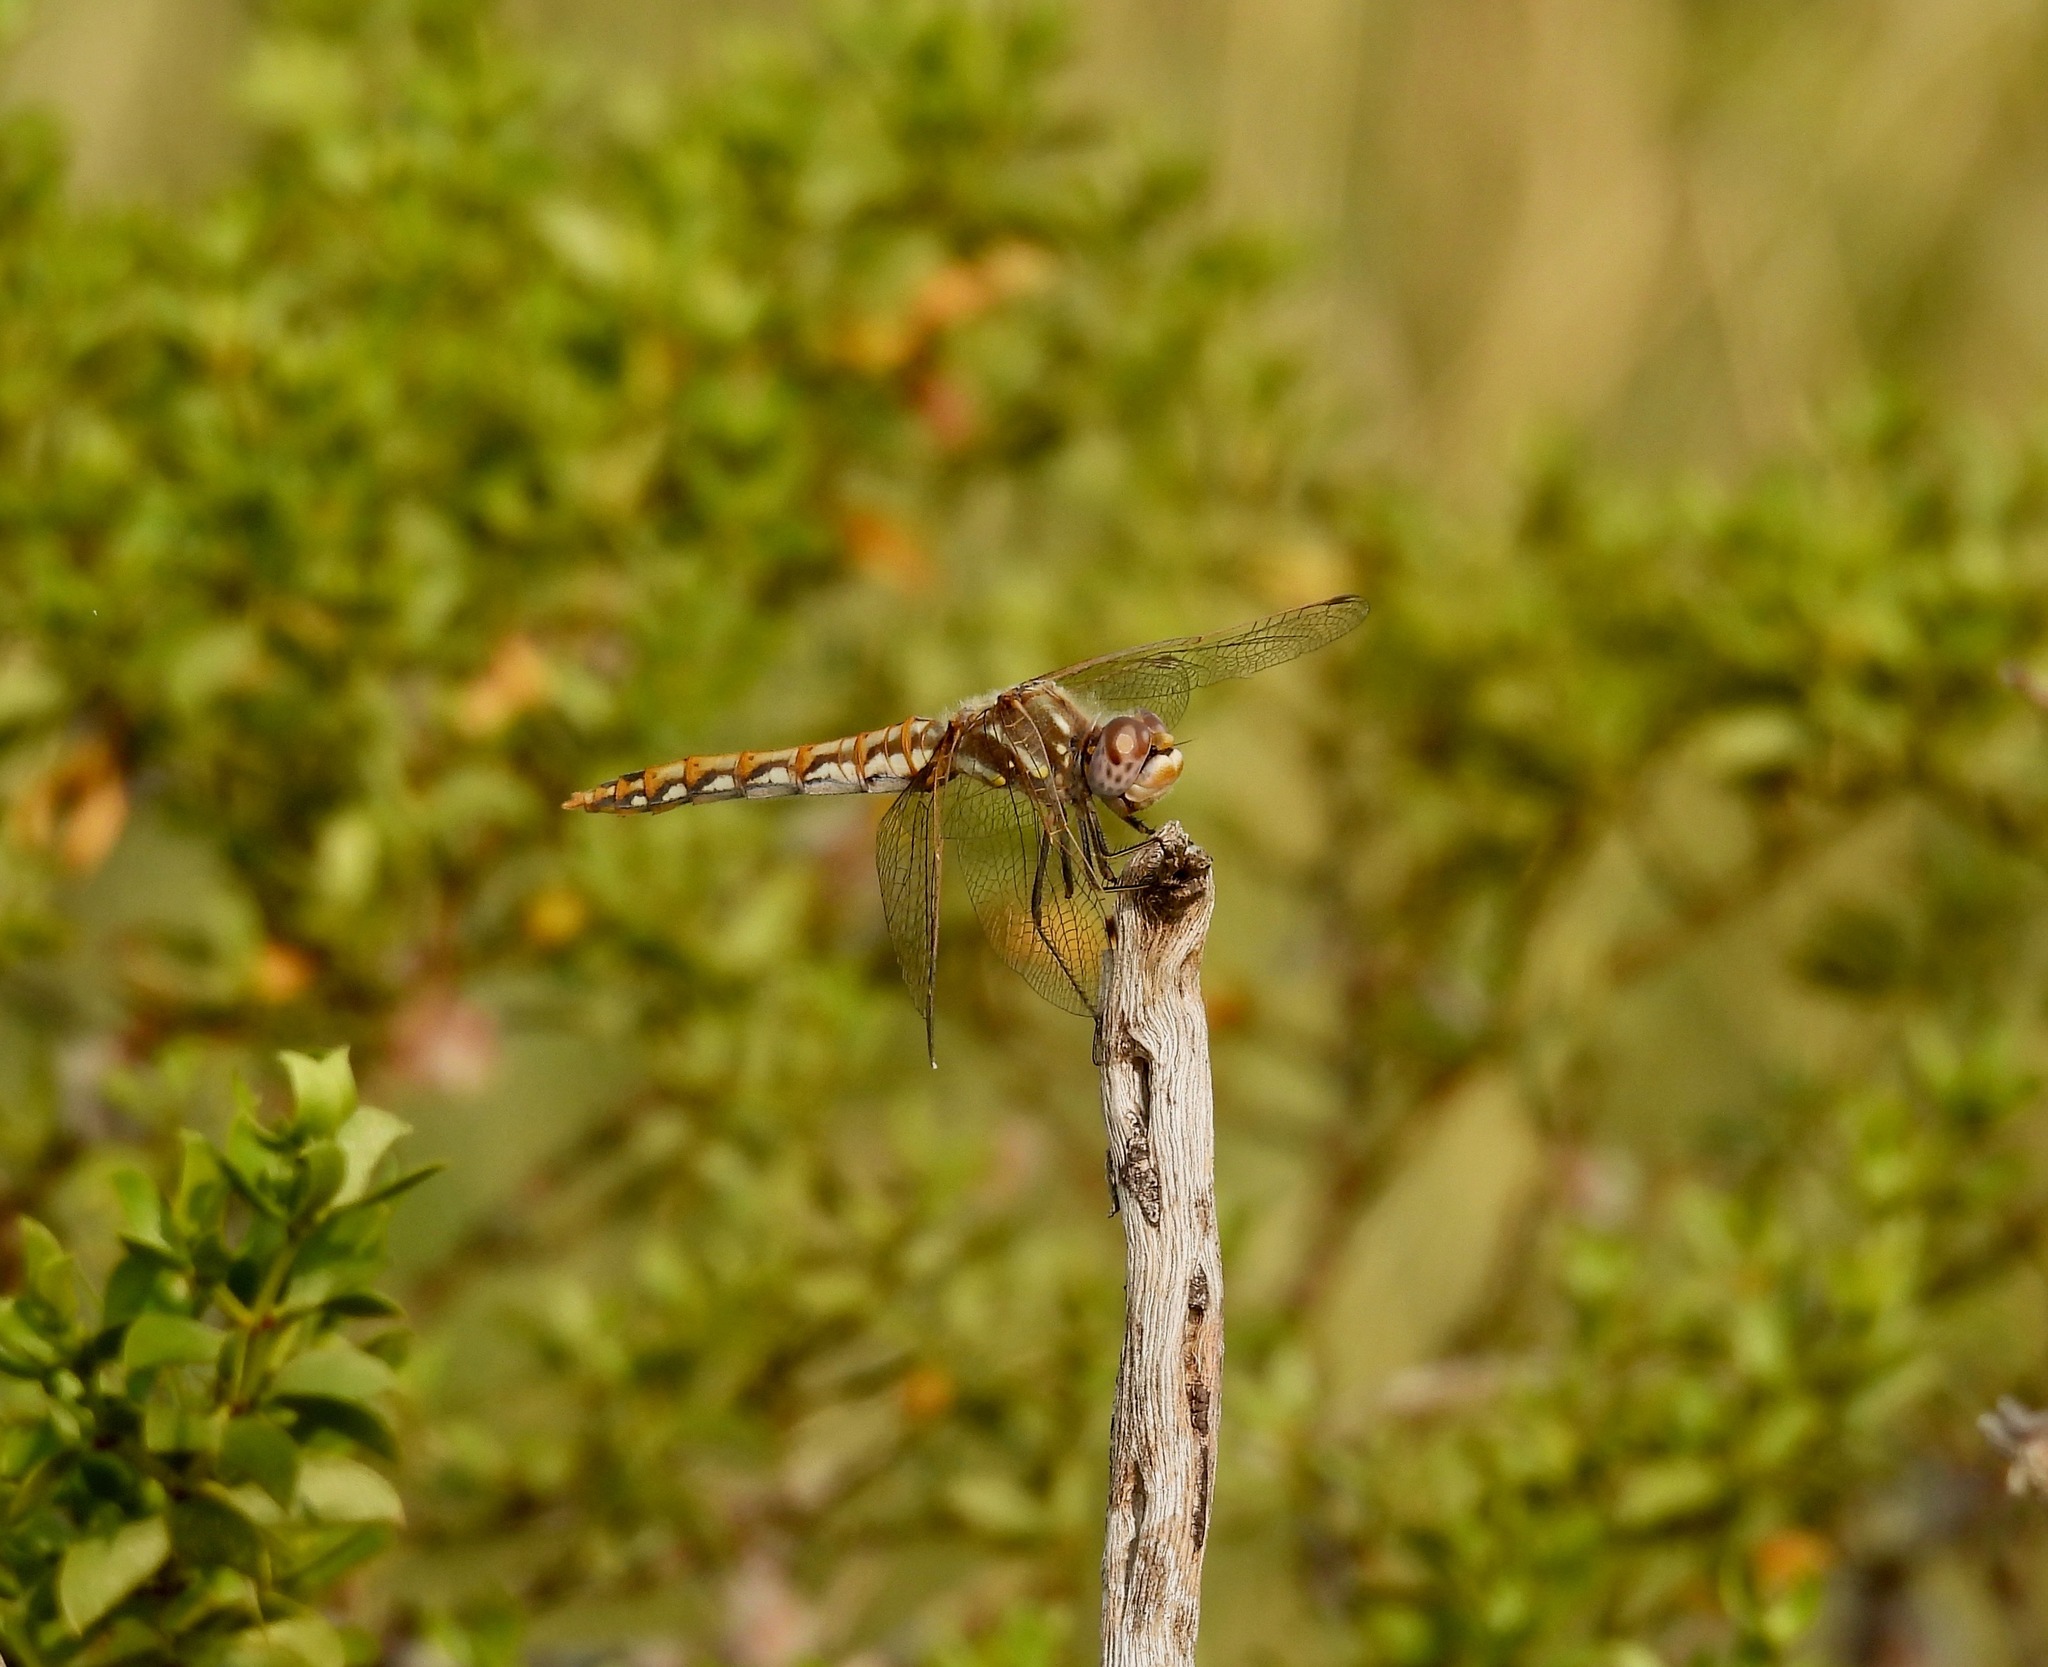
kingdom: Animalia
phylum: Arthropoda
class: Insecta
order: Odonata
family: Libellulidae
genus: Sympetrum
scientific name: Sympetrum corruptum
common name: Variegated meadowhawk
